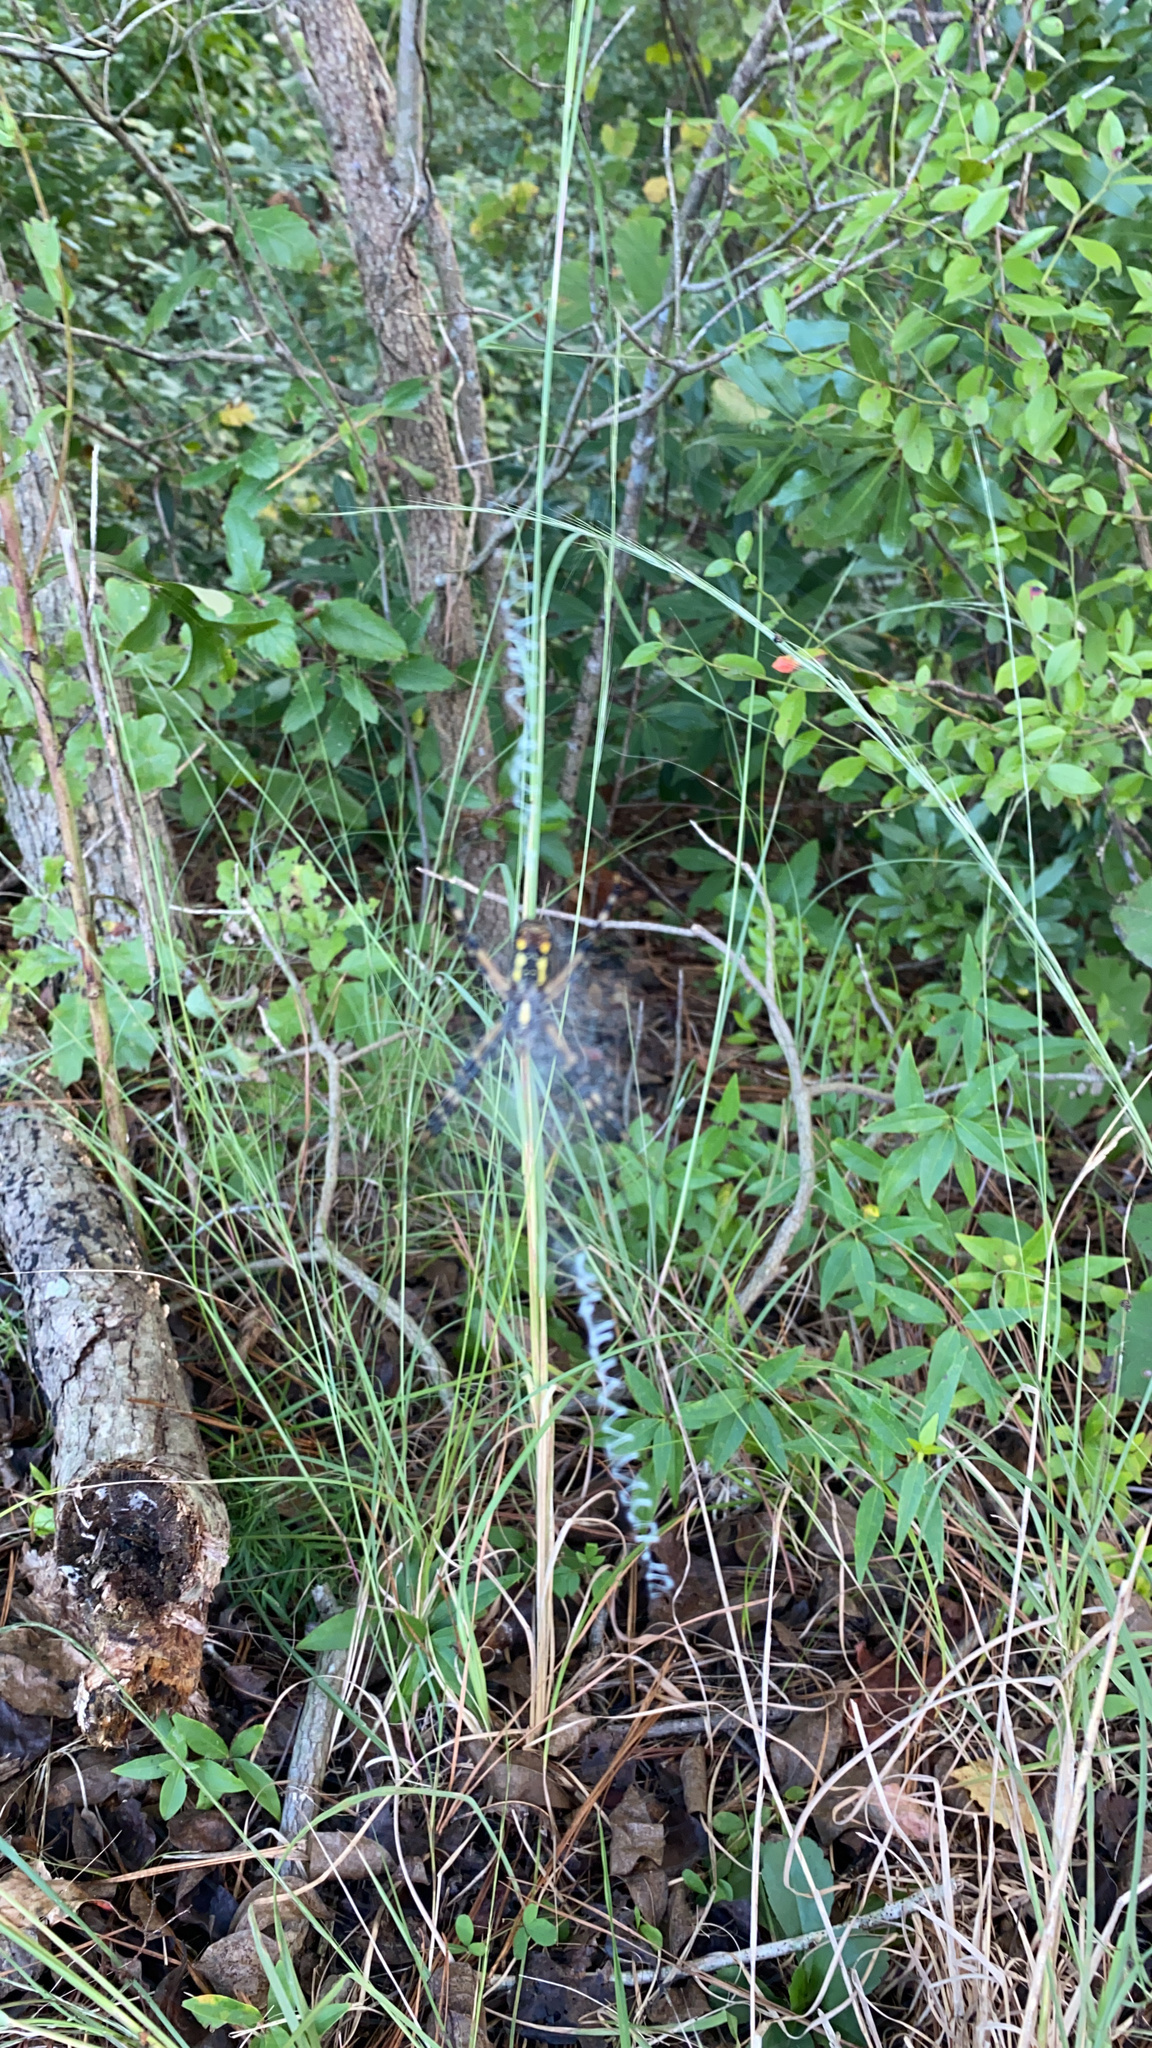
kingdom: Animalia
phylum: Arthropoda
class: Arachnida
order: Araneae
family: Araneidae
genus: Argiope
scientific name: Argiope aurantia
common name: Orb weavers
